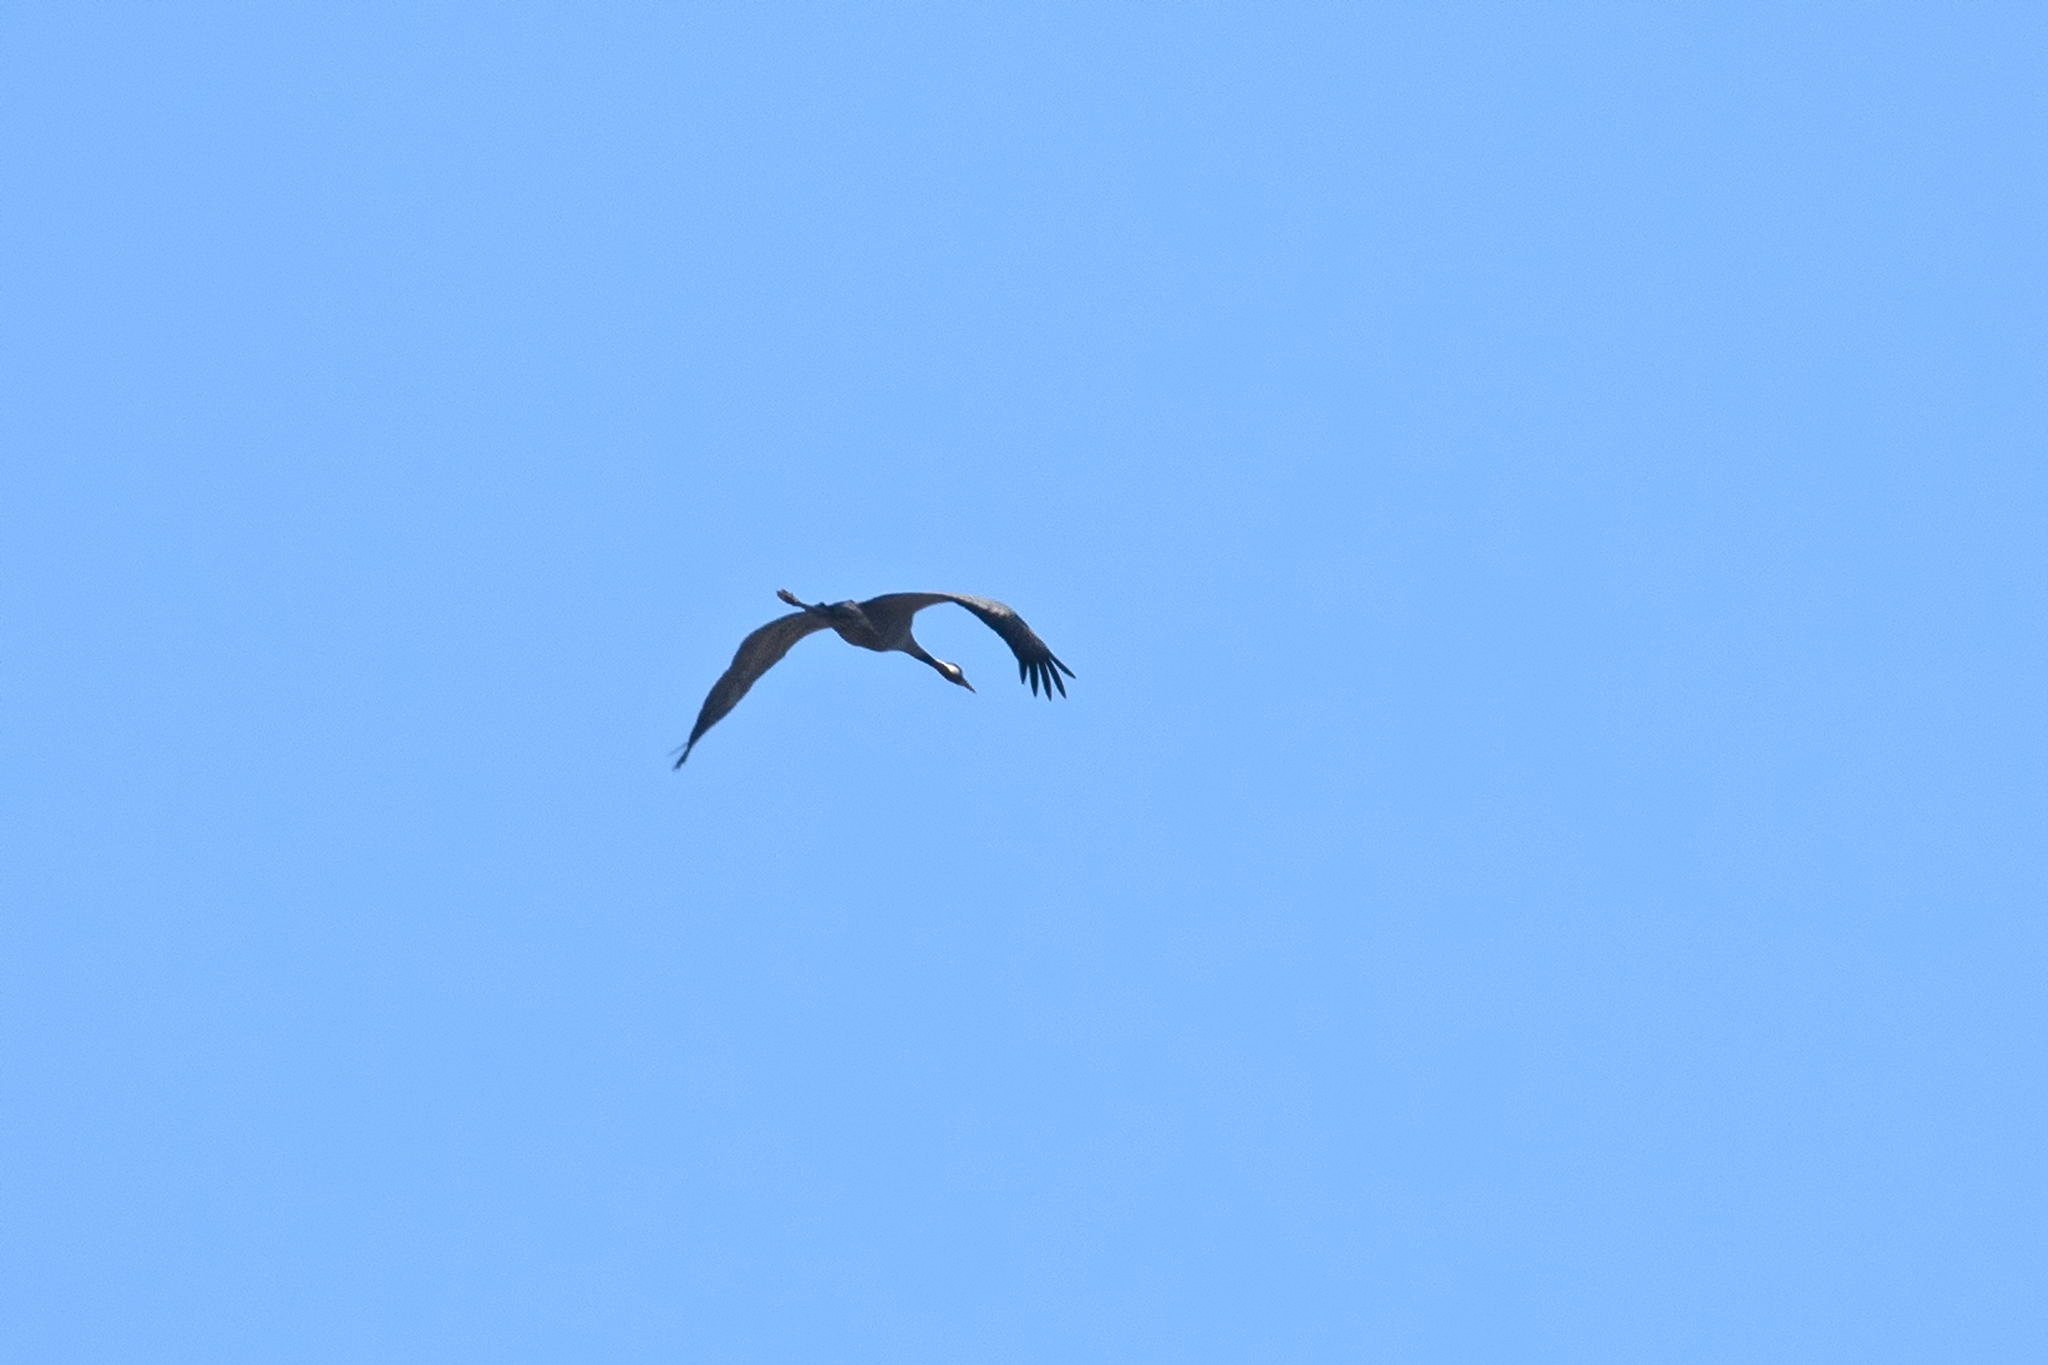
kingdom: Animalia
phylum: Chordata
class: Aves
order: Gruiformes
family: Gruidae
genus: Grus
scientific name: Grus grus
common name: Common crane
